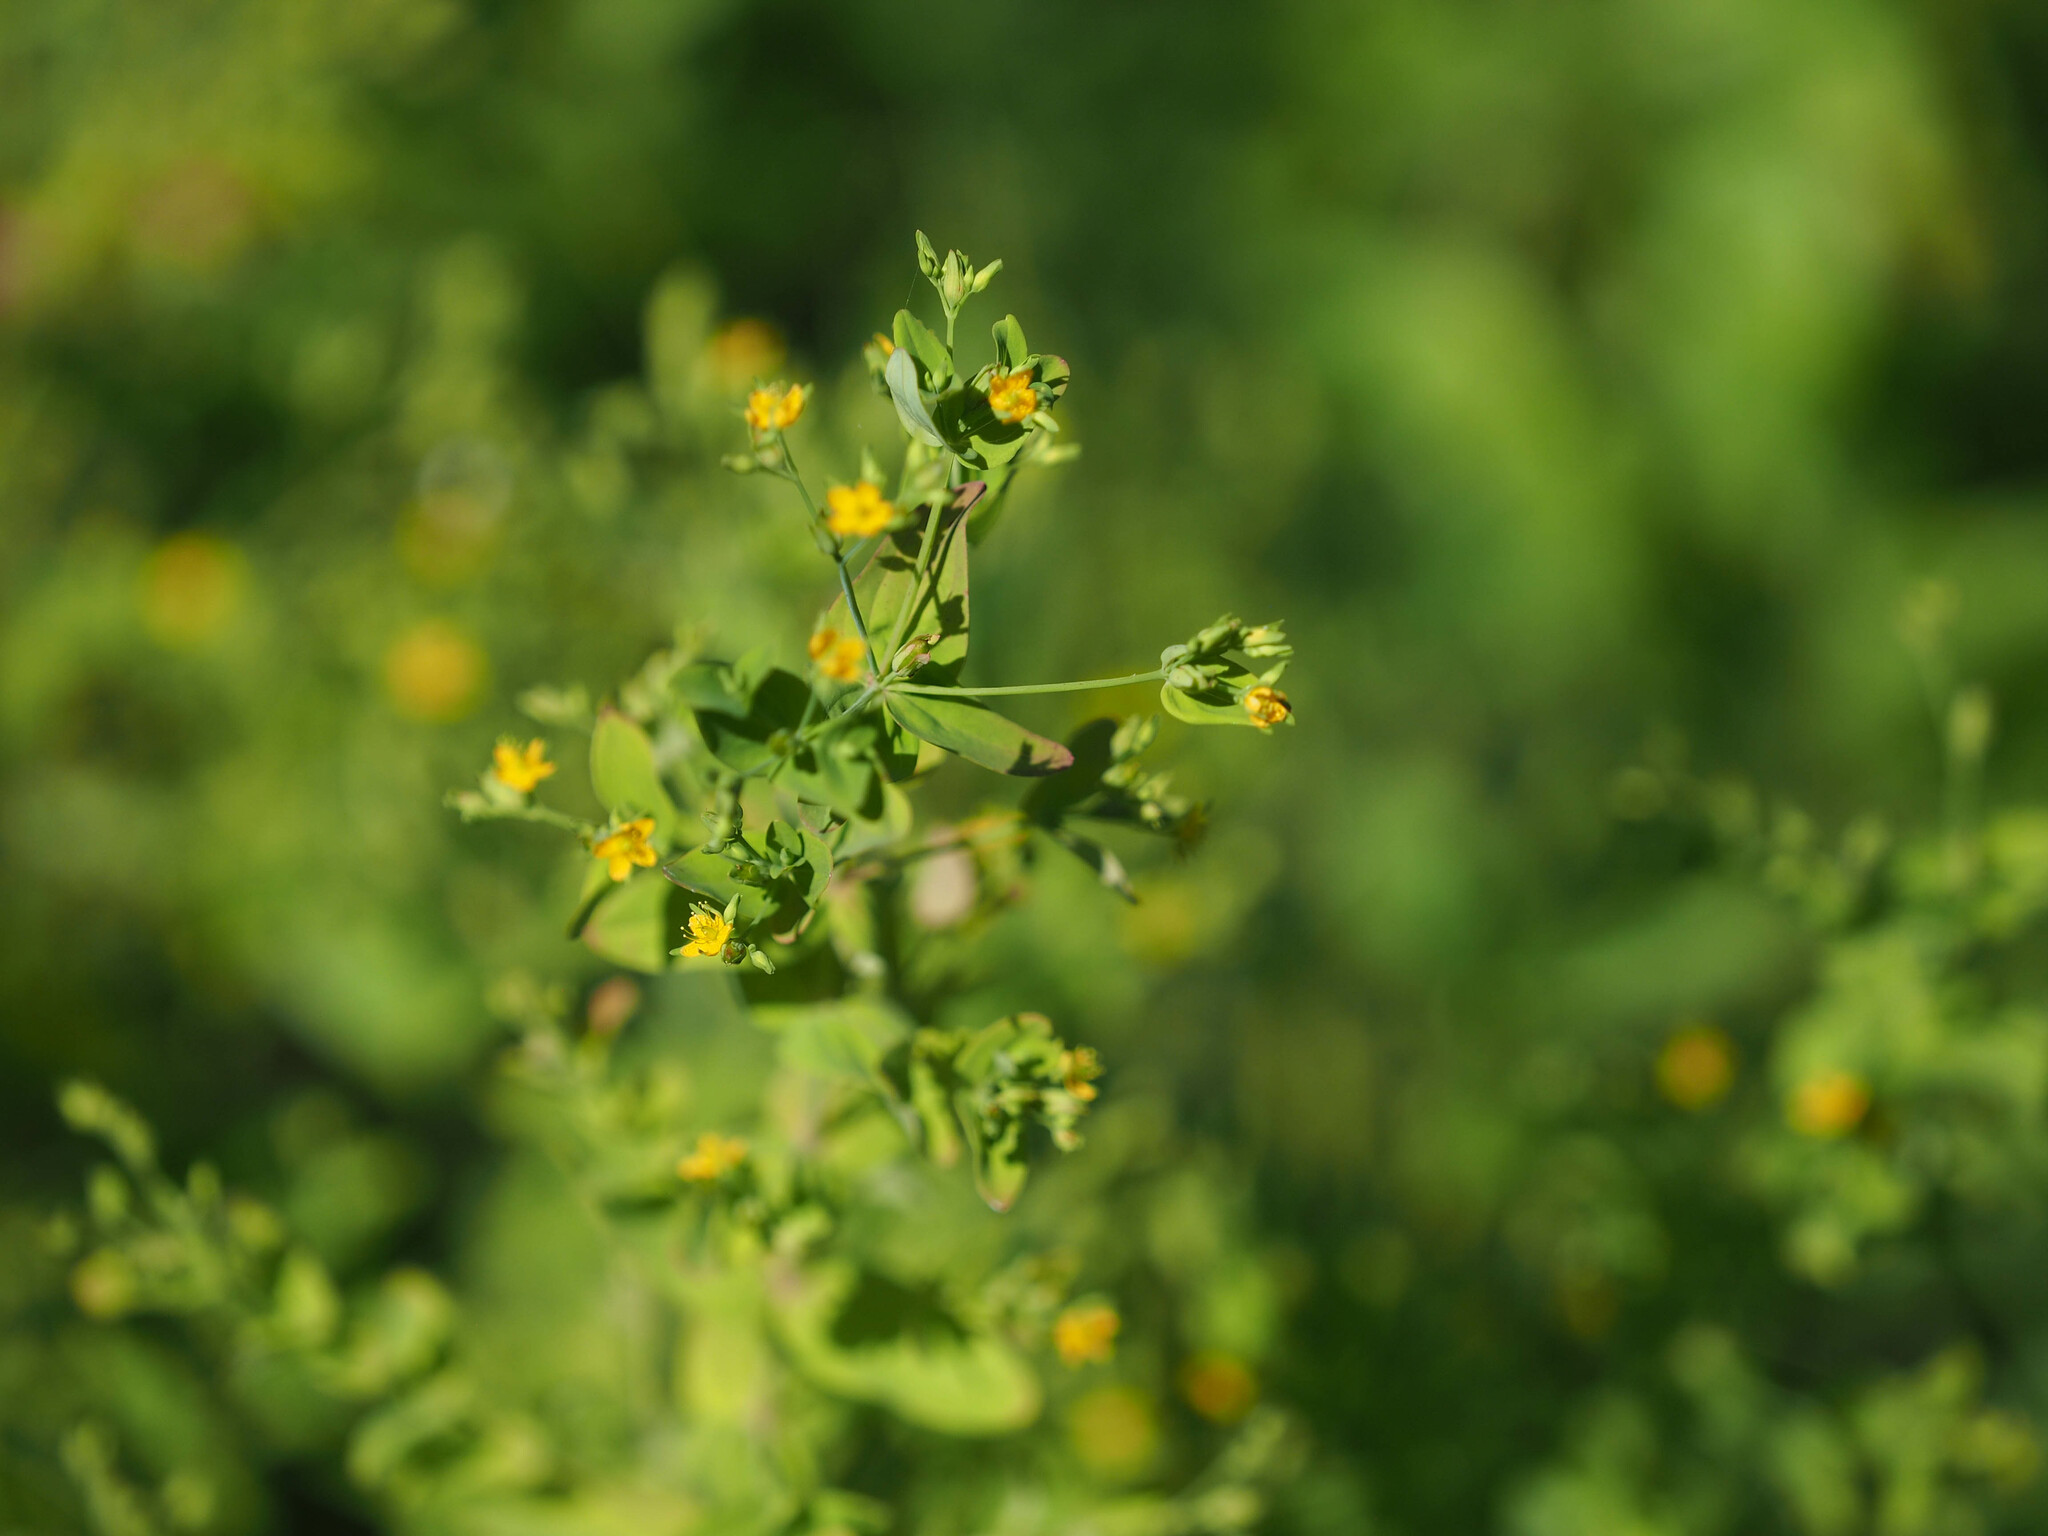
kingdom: Plantae
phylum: Tracheophyta
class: Magnoliopsida
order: Malpighiales
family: Hypericaceae
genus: Hypericum
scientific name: Hypericum mutilum
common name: Dwarf st. john's-wort
